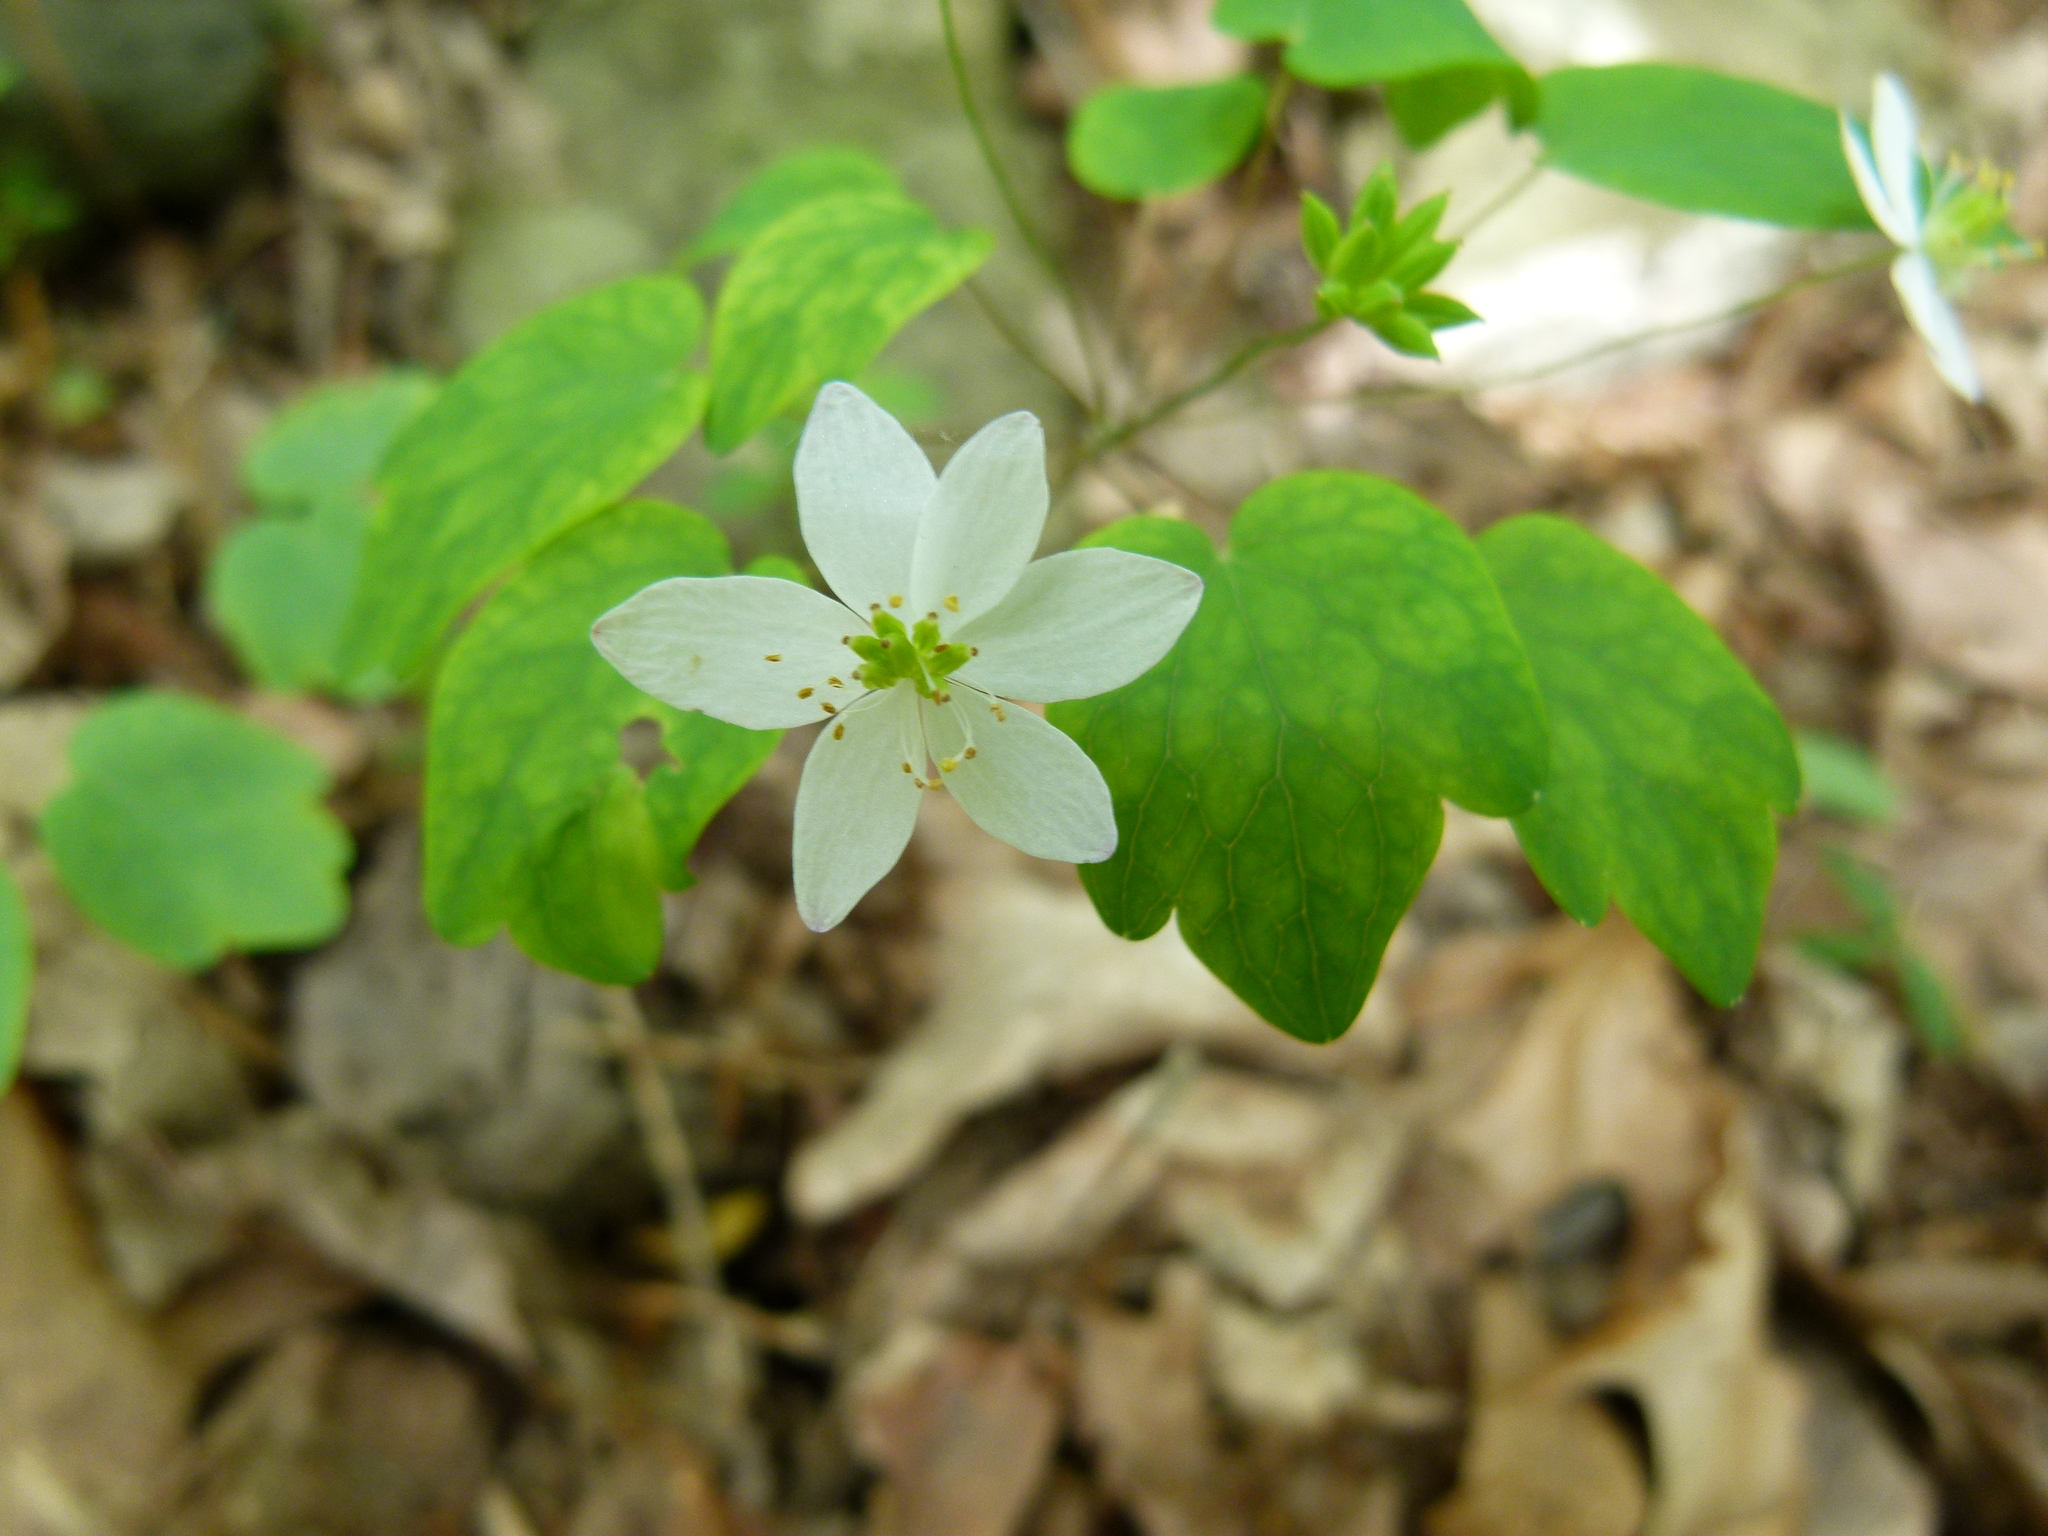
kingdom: Plantae
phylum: Tracheophyta
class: Magnoliopsida
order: Ranunculales
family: Ranunculaceae
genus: Thalictrum
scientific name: Thalictrum thalictroides
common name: Rue-anemone
